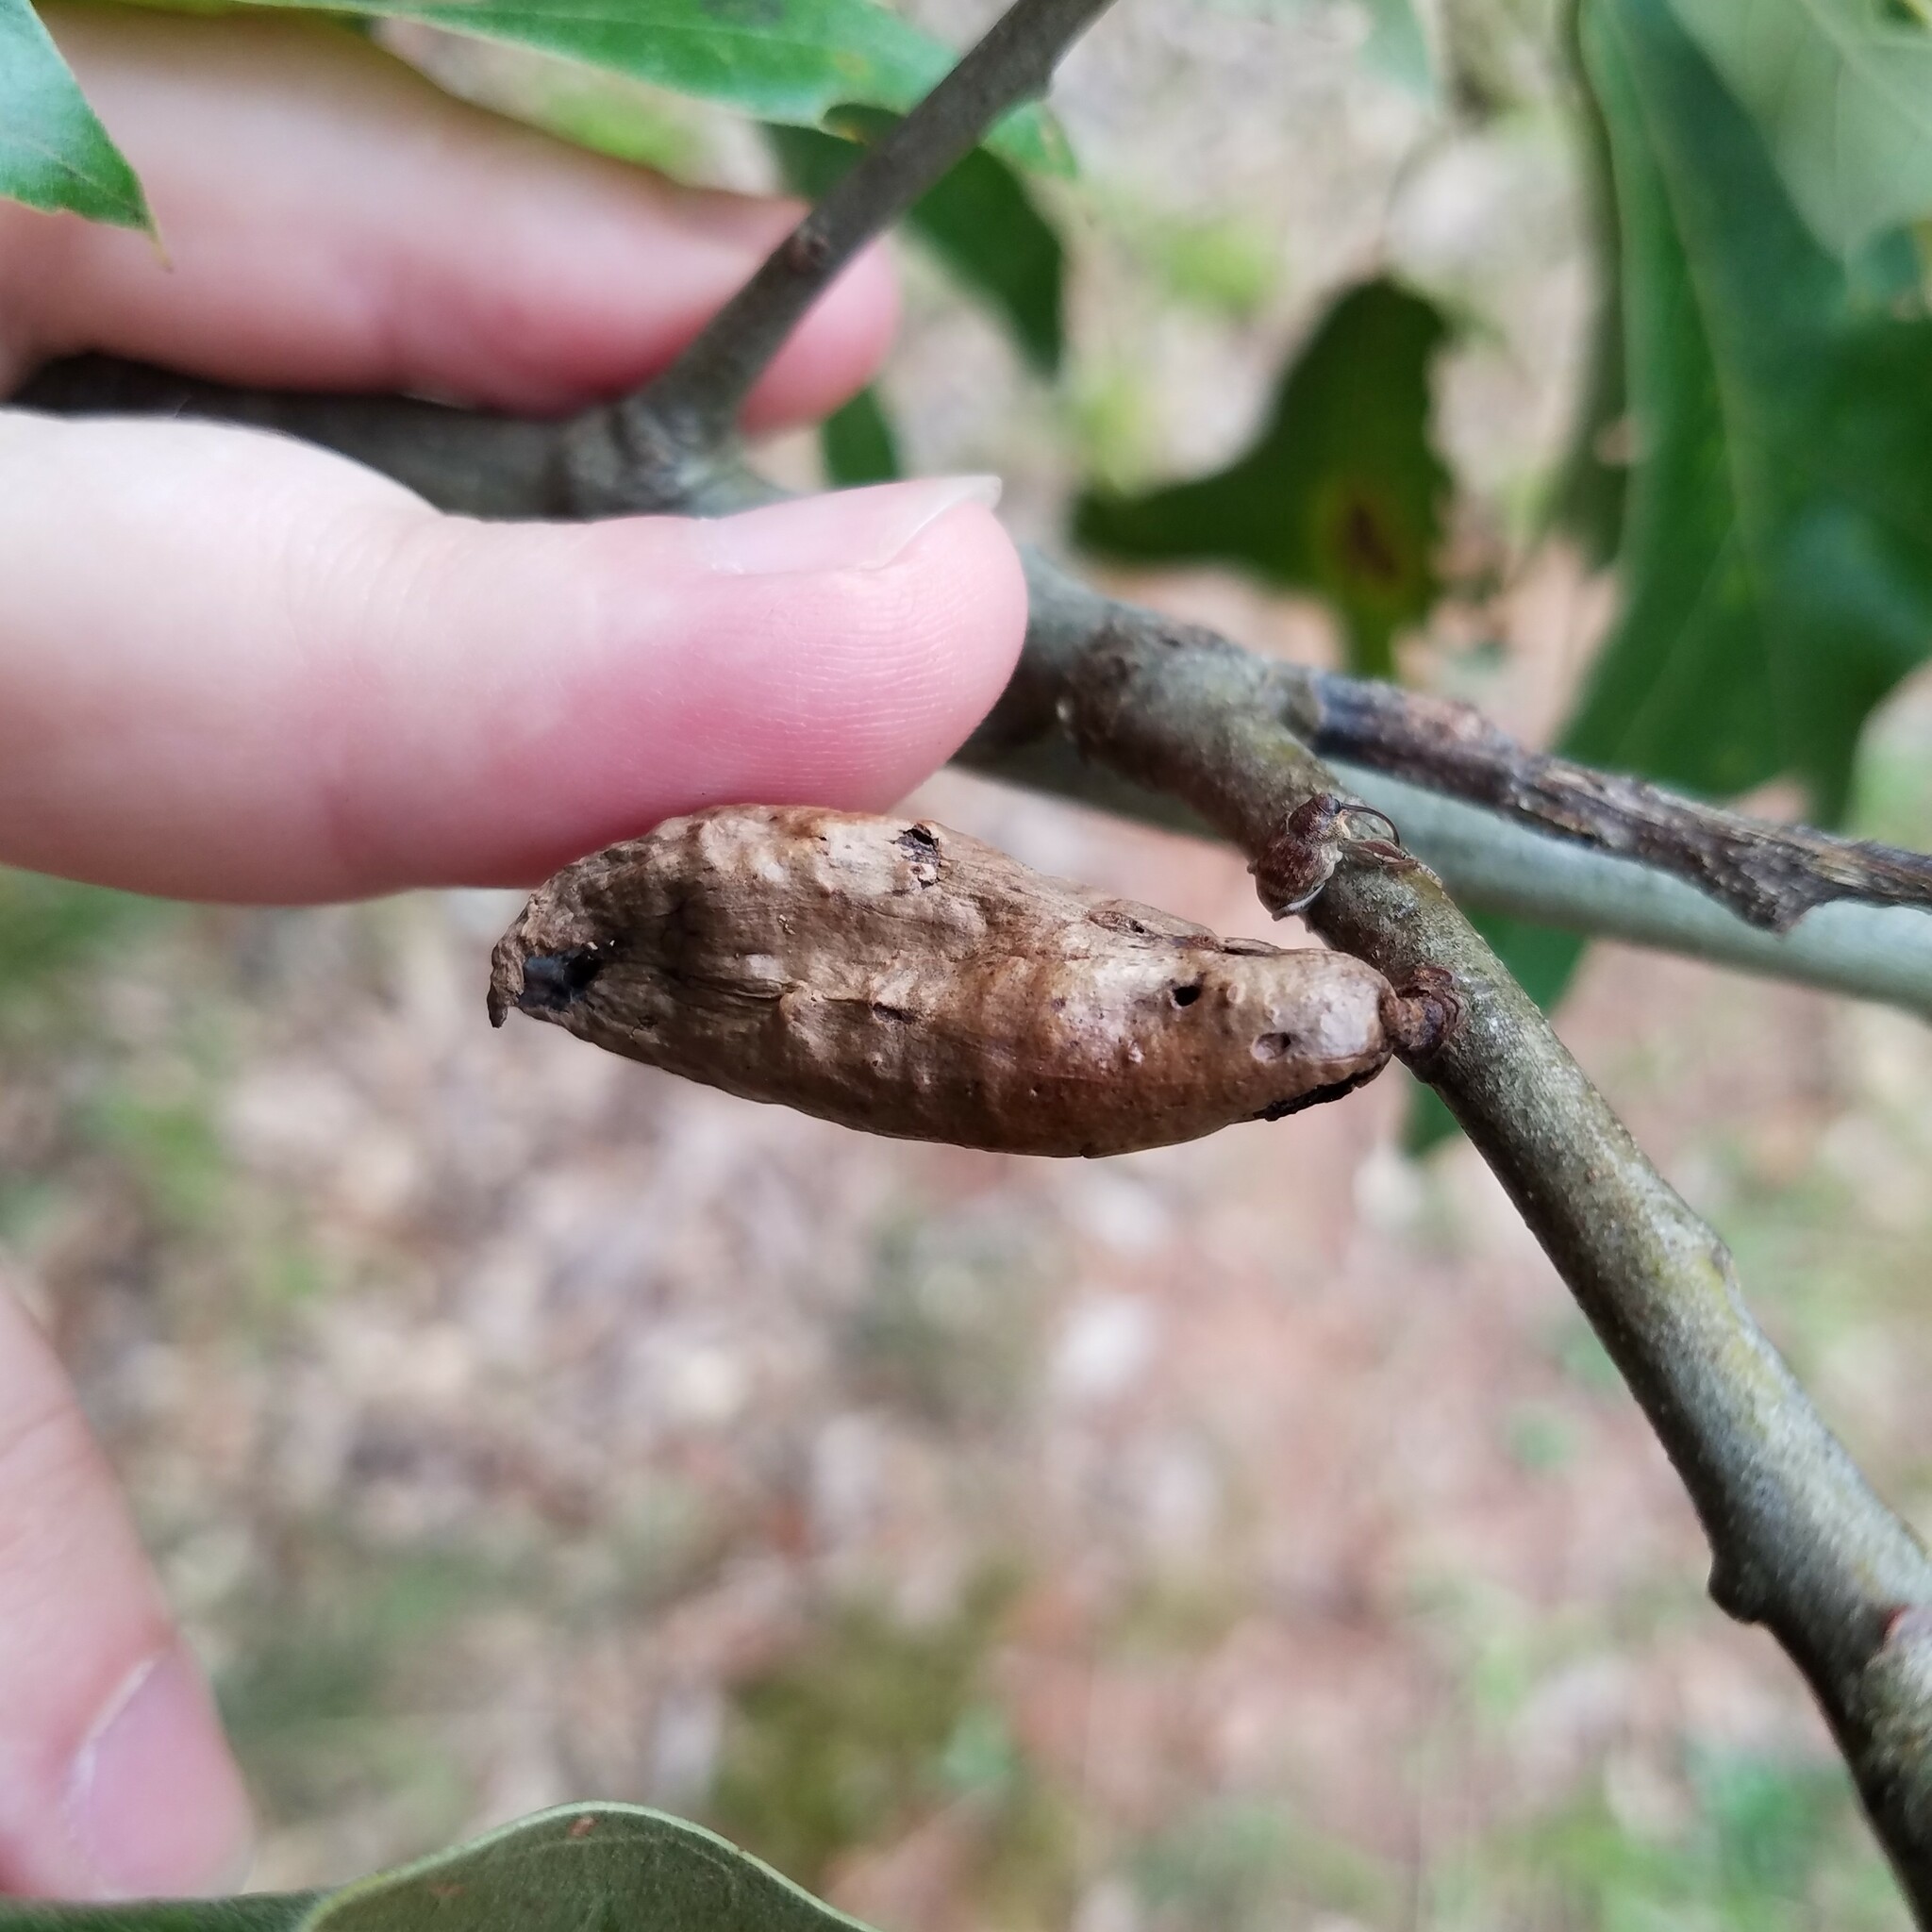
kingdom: Animalia
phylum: Arthropoda
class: Insecta
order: Hymenoptera
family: Cynipidae
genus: Amphibolips
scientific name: Amphibolips
